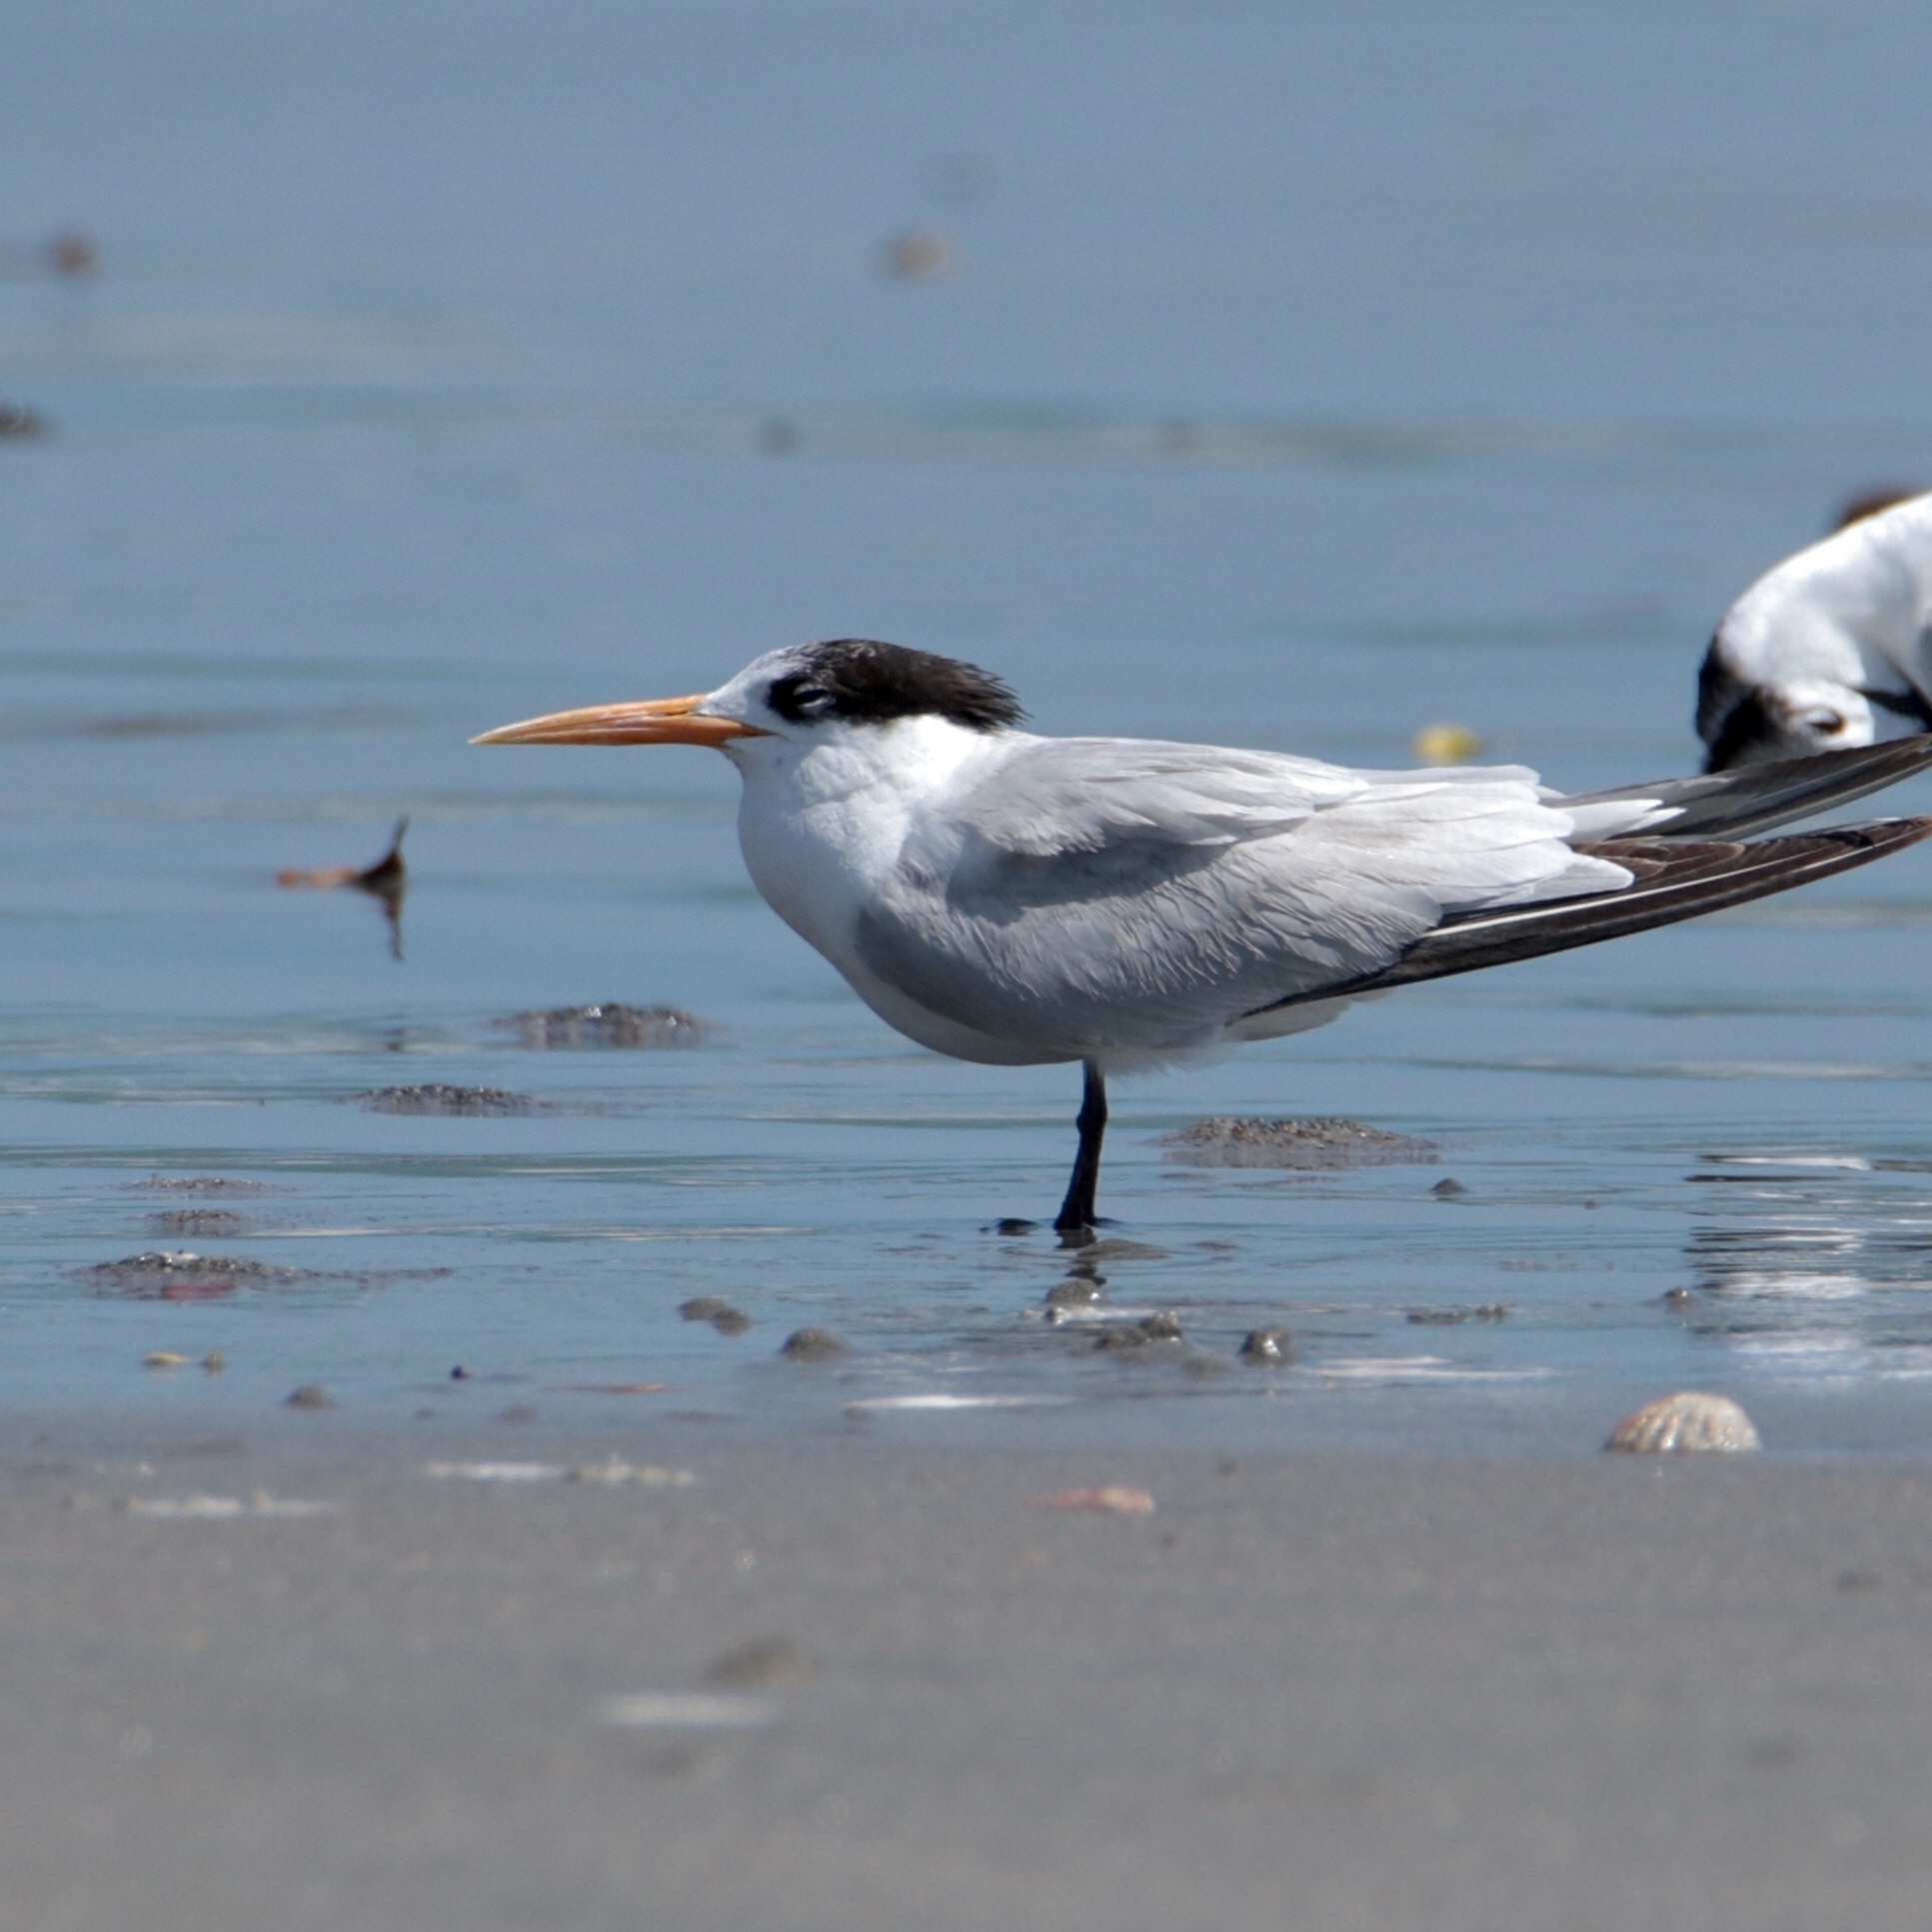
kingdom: Animalia
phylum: Chordata
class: Aves
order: Charadriiformes
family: Laridae
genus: Thalasseus
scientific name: Thalasseus elegans
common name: Elegant tern
